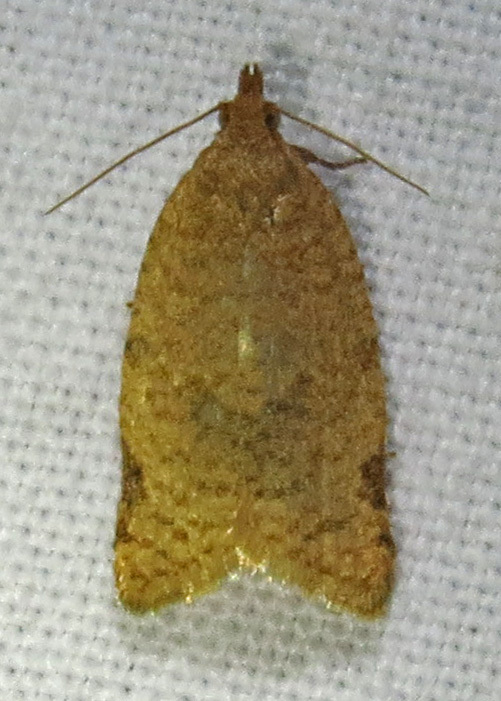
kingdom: Animalia
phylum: Arthropoda
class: Insecta
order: Lepidoptera
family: Tortricidae
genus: Clepsis
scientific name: Clepsis virescana
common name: Greenish apple moth
